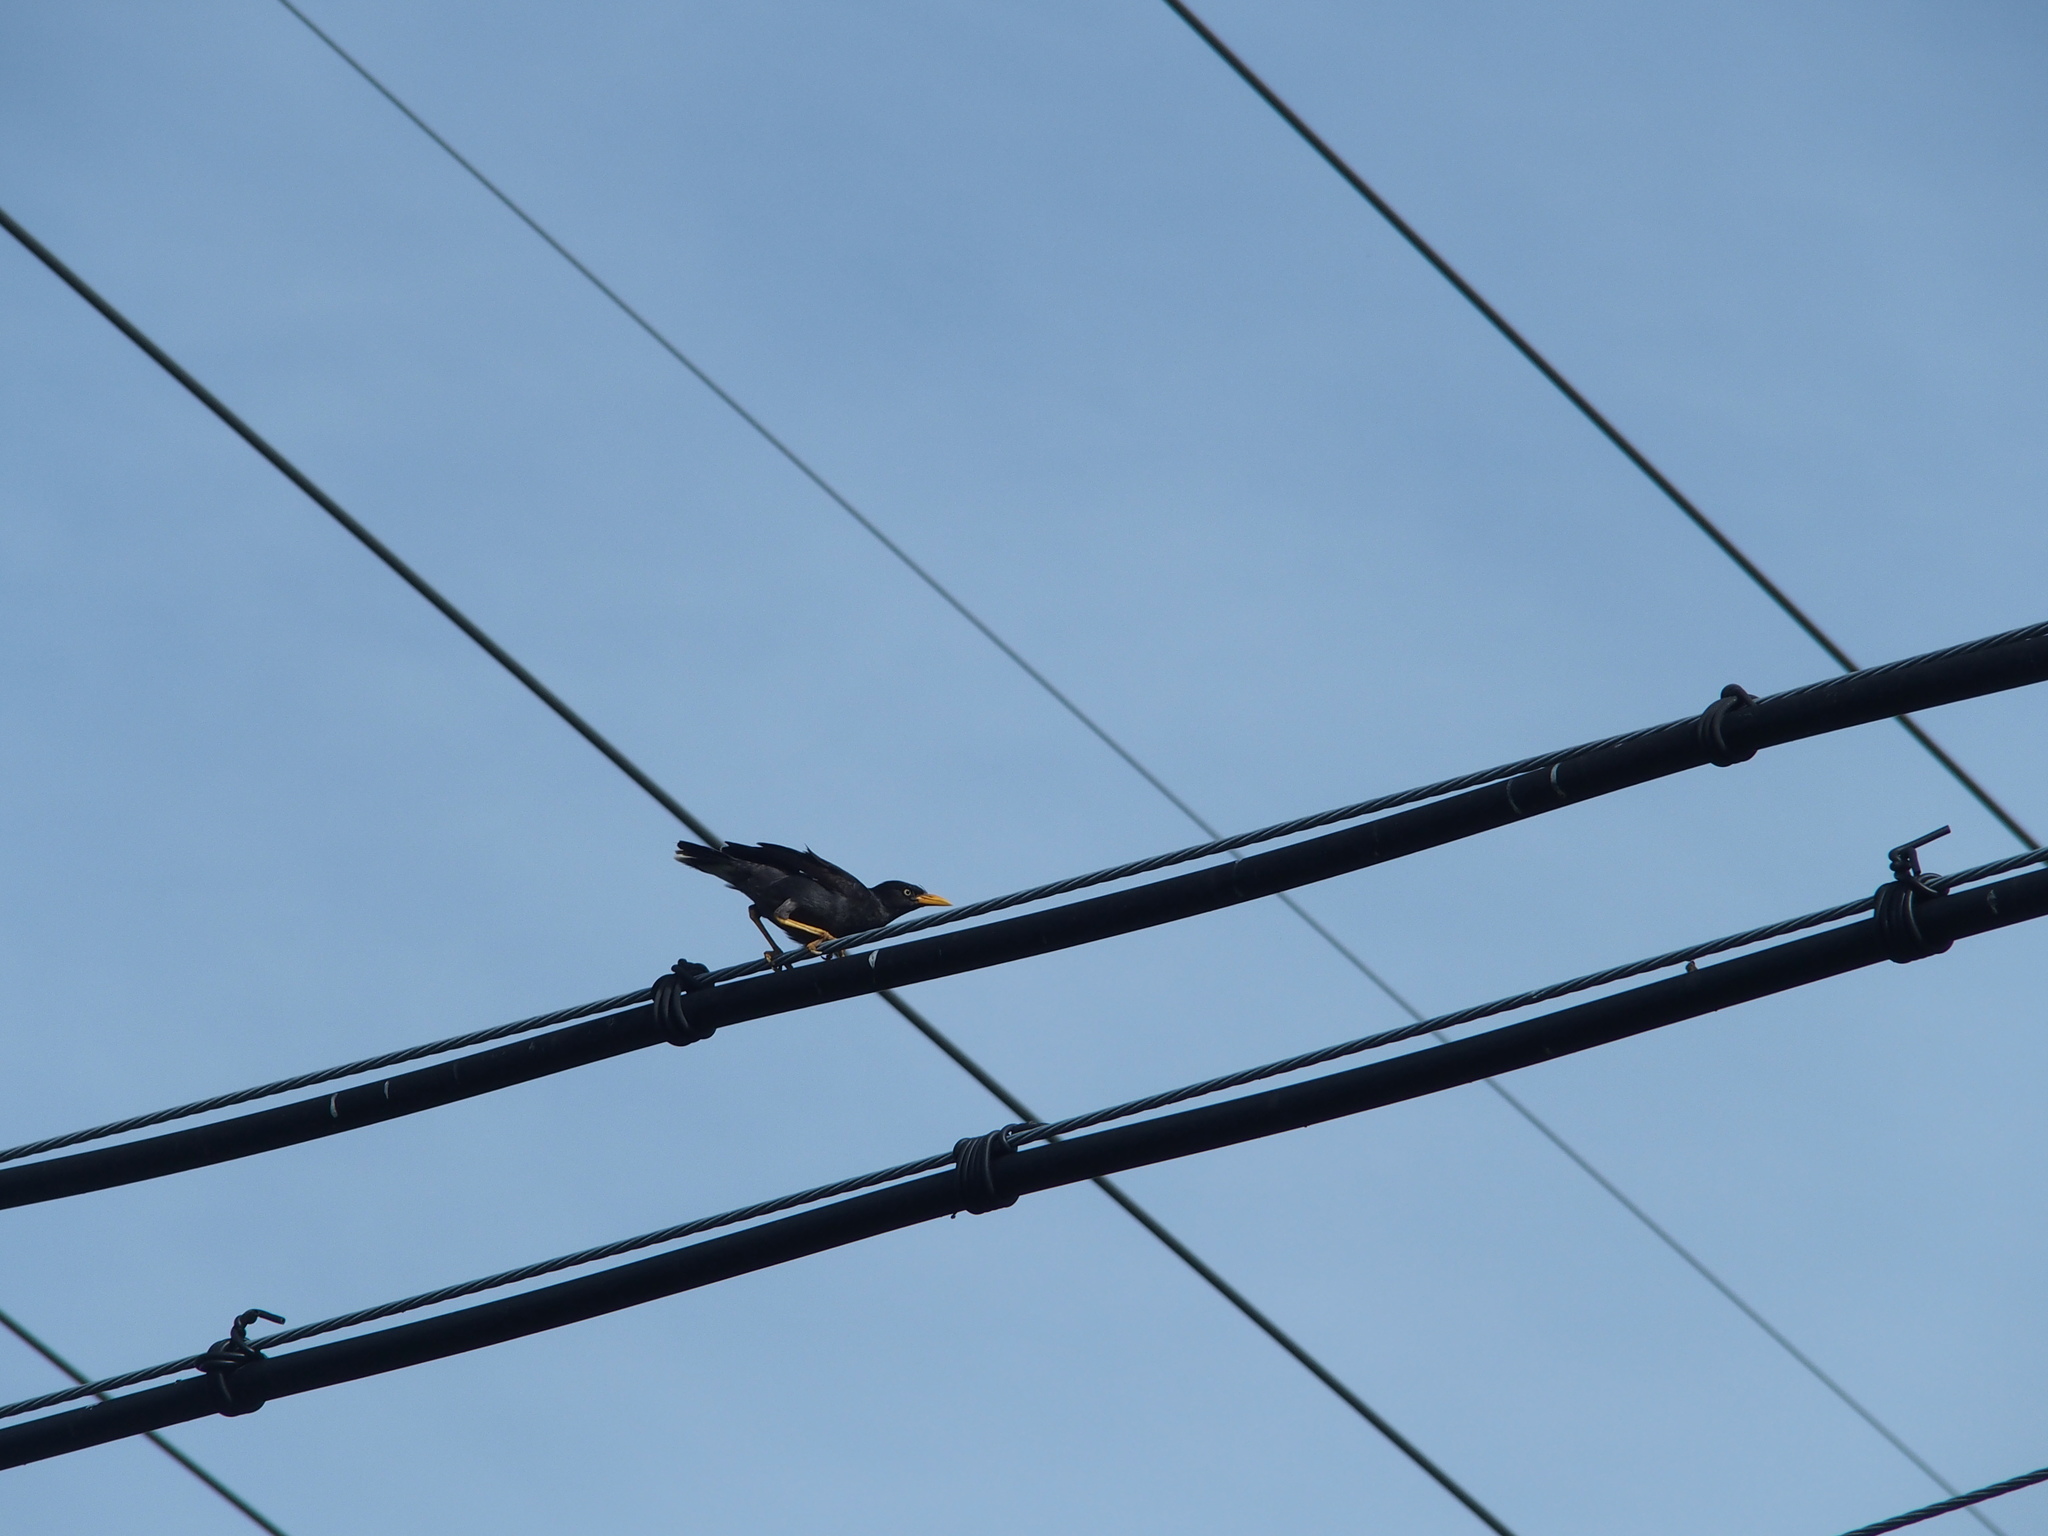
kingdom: Animalia
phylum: Chordata
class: Aves
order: Passeriformes
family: Sturnidae
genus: Acridotheres
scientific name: Acridotheres javanicus
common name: Javan myna
